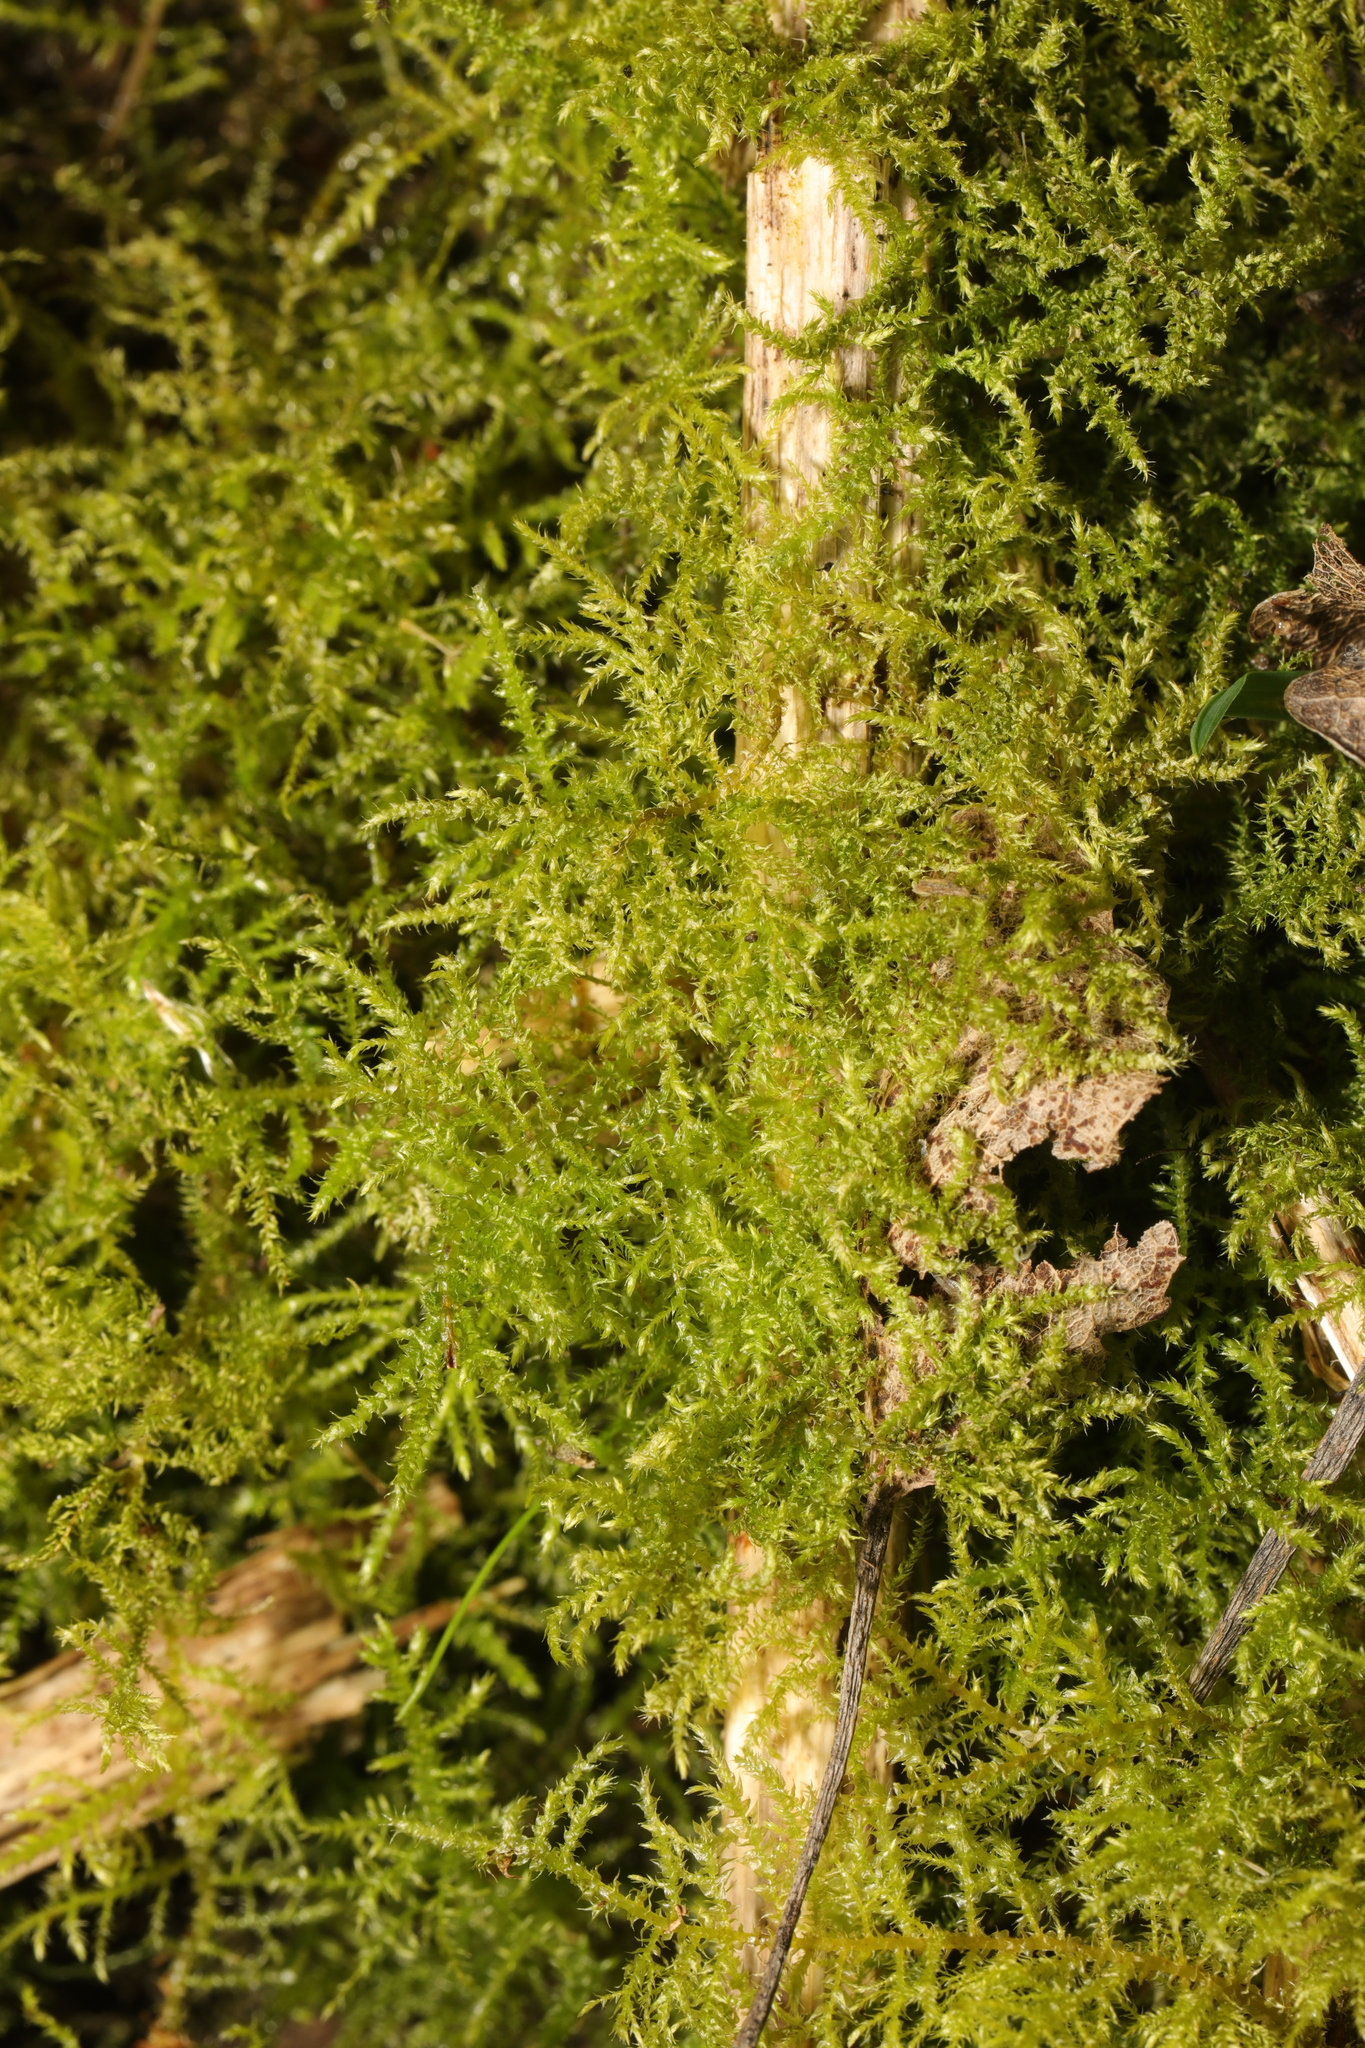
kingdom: Plantae
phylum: Bryophyta
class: Bryopsida
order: Hypnales
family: Brachytheciaceae
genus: Kindbergia
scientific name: Kindbergia praelonga
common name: Slender beaked moss
